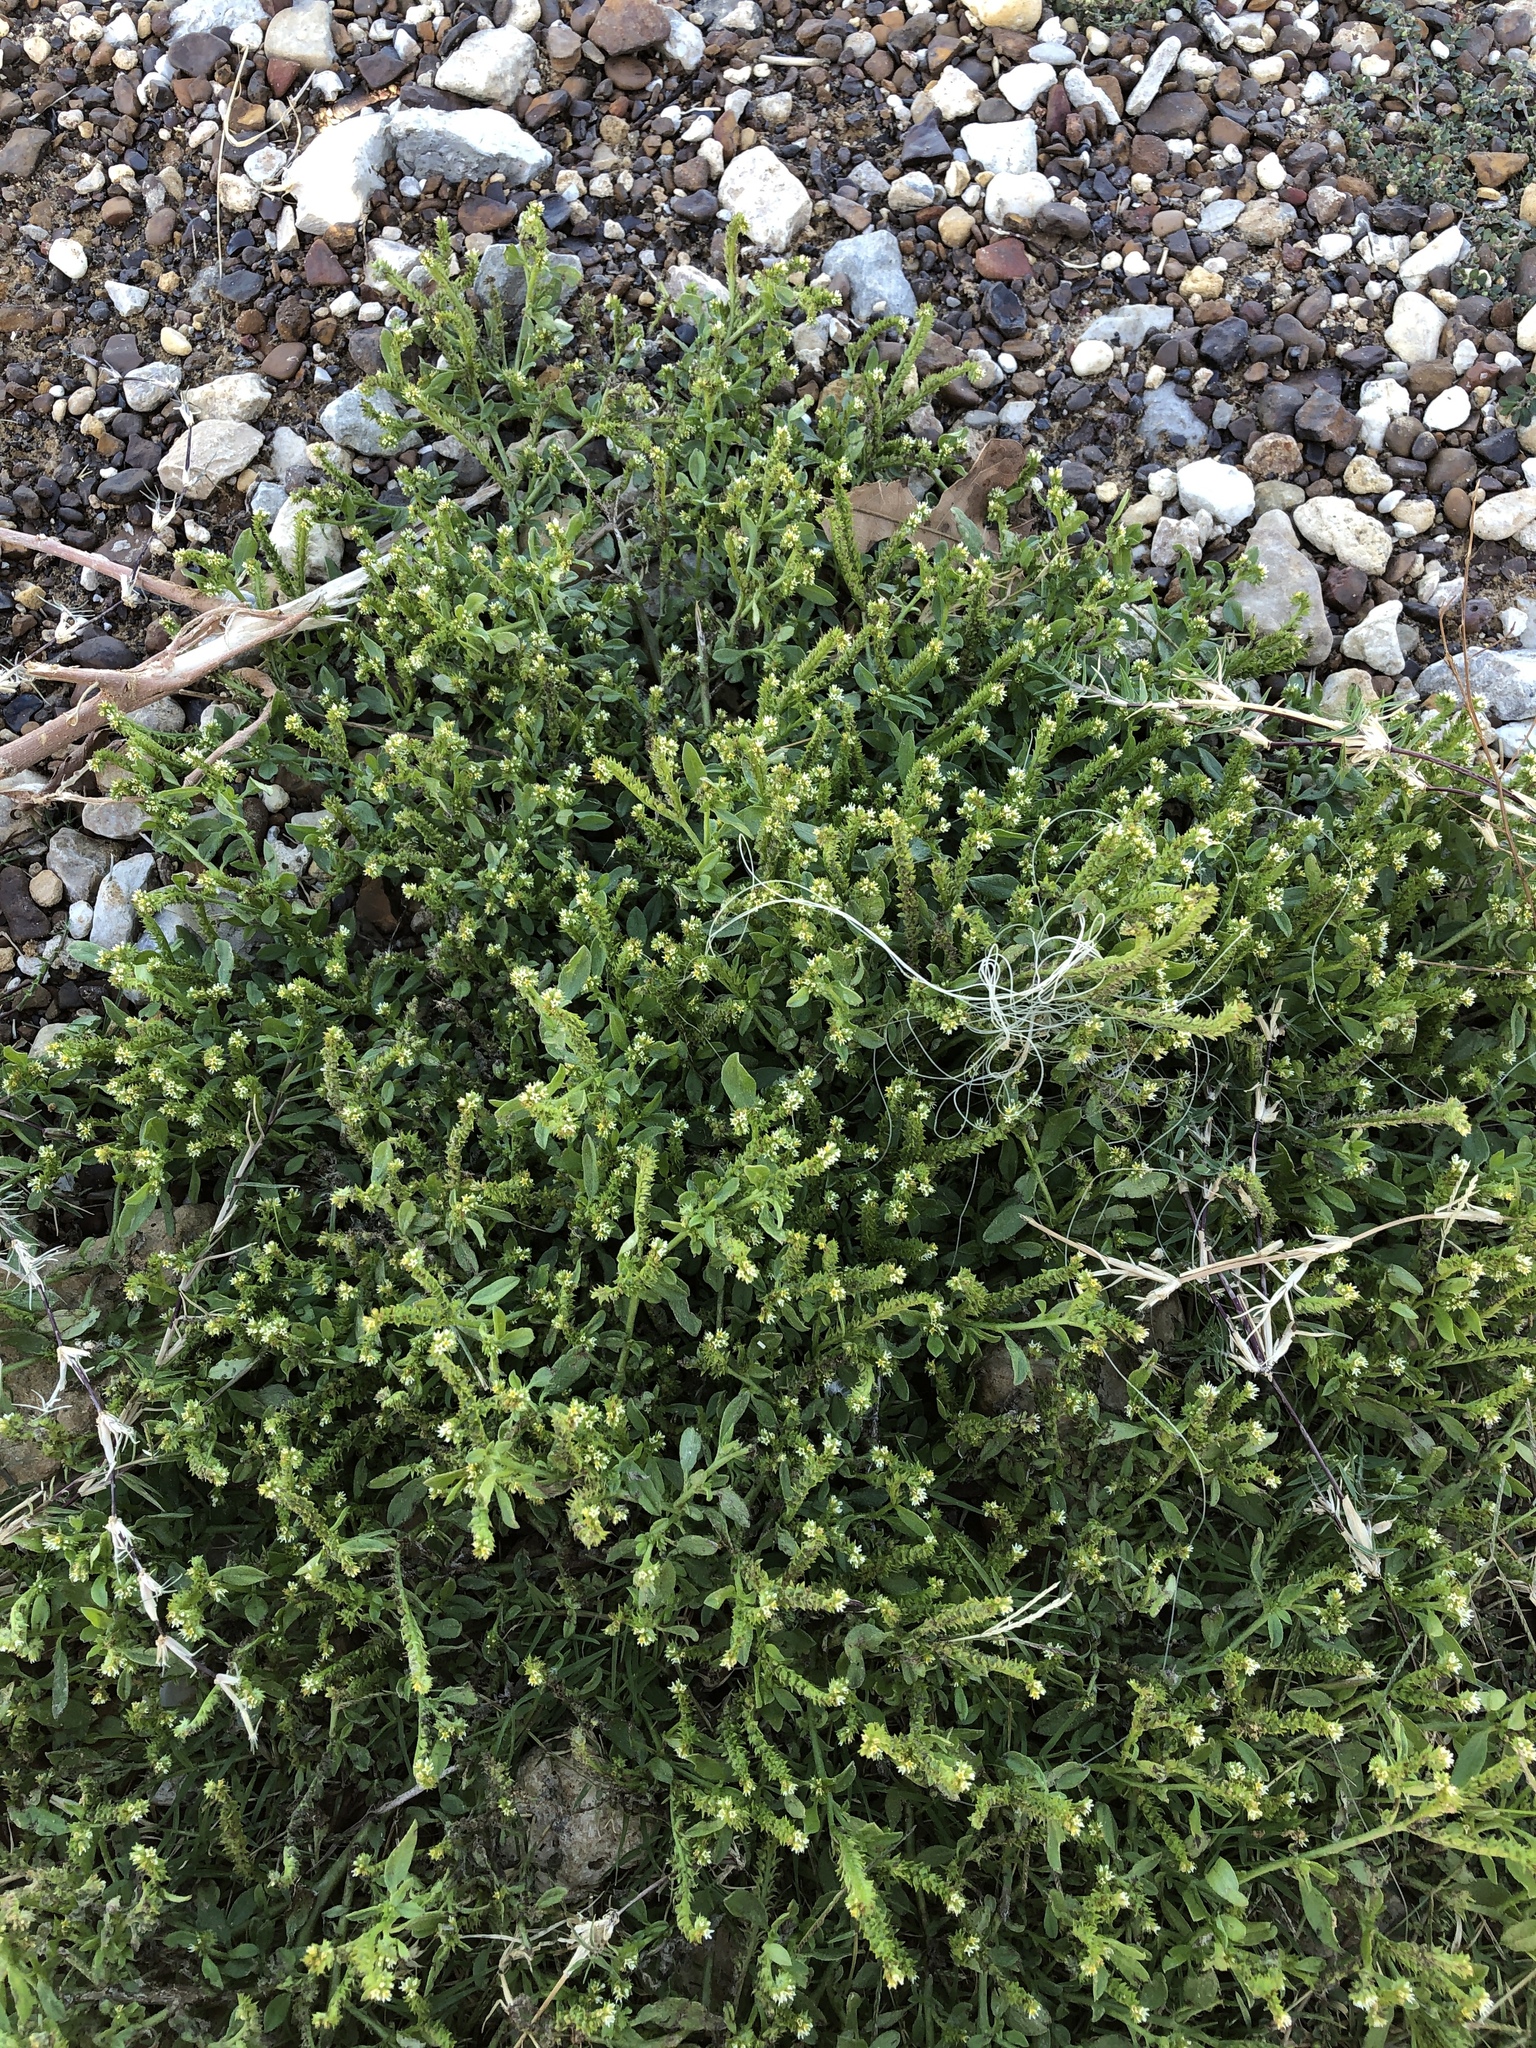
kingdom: Plantae
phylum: Tracheophyta
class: Magnoliopsida
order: Boraginales
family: Heliotropiaceae
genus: Euploca
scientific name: Euploca procumbens
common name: Fourspike heliotrope
